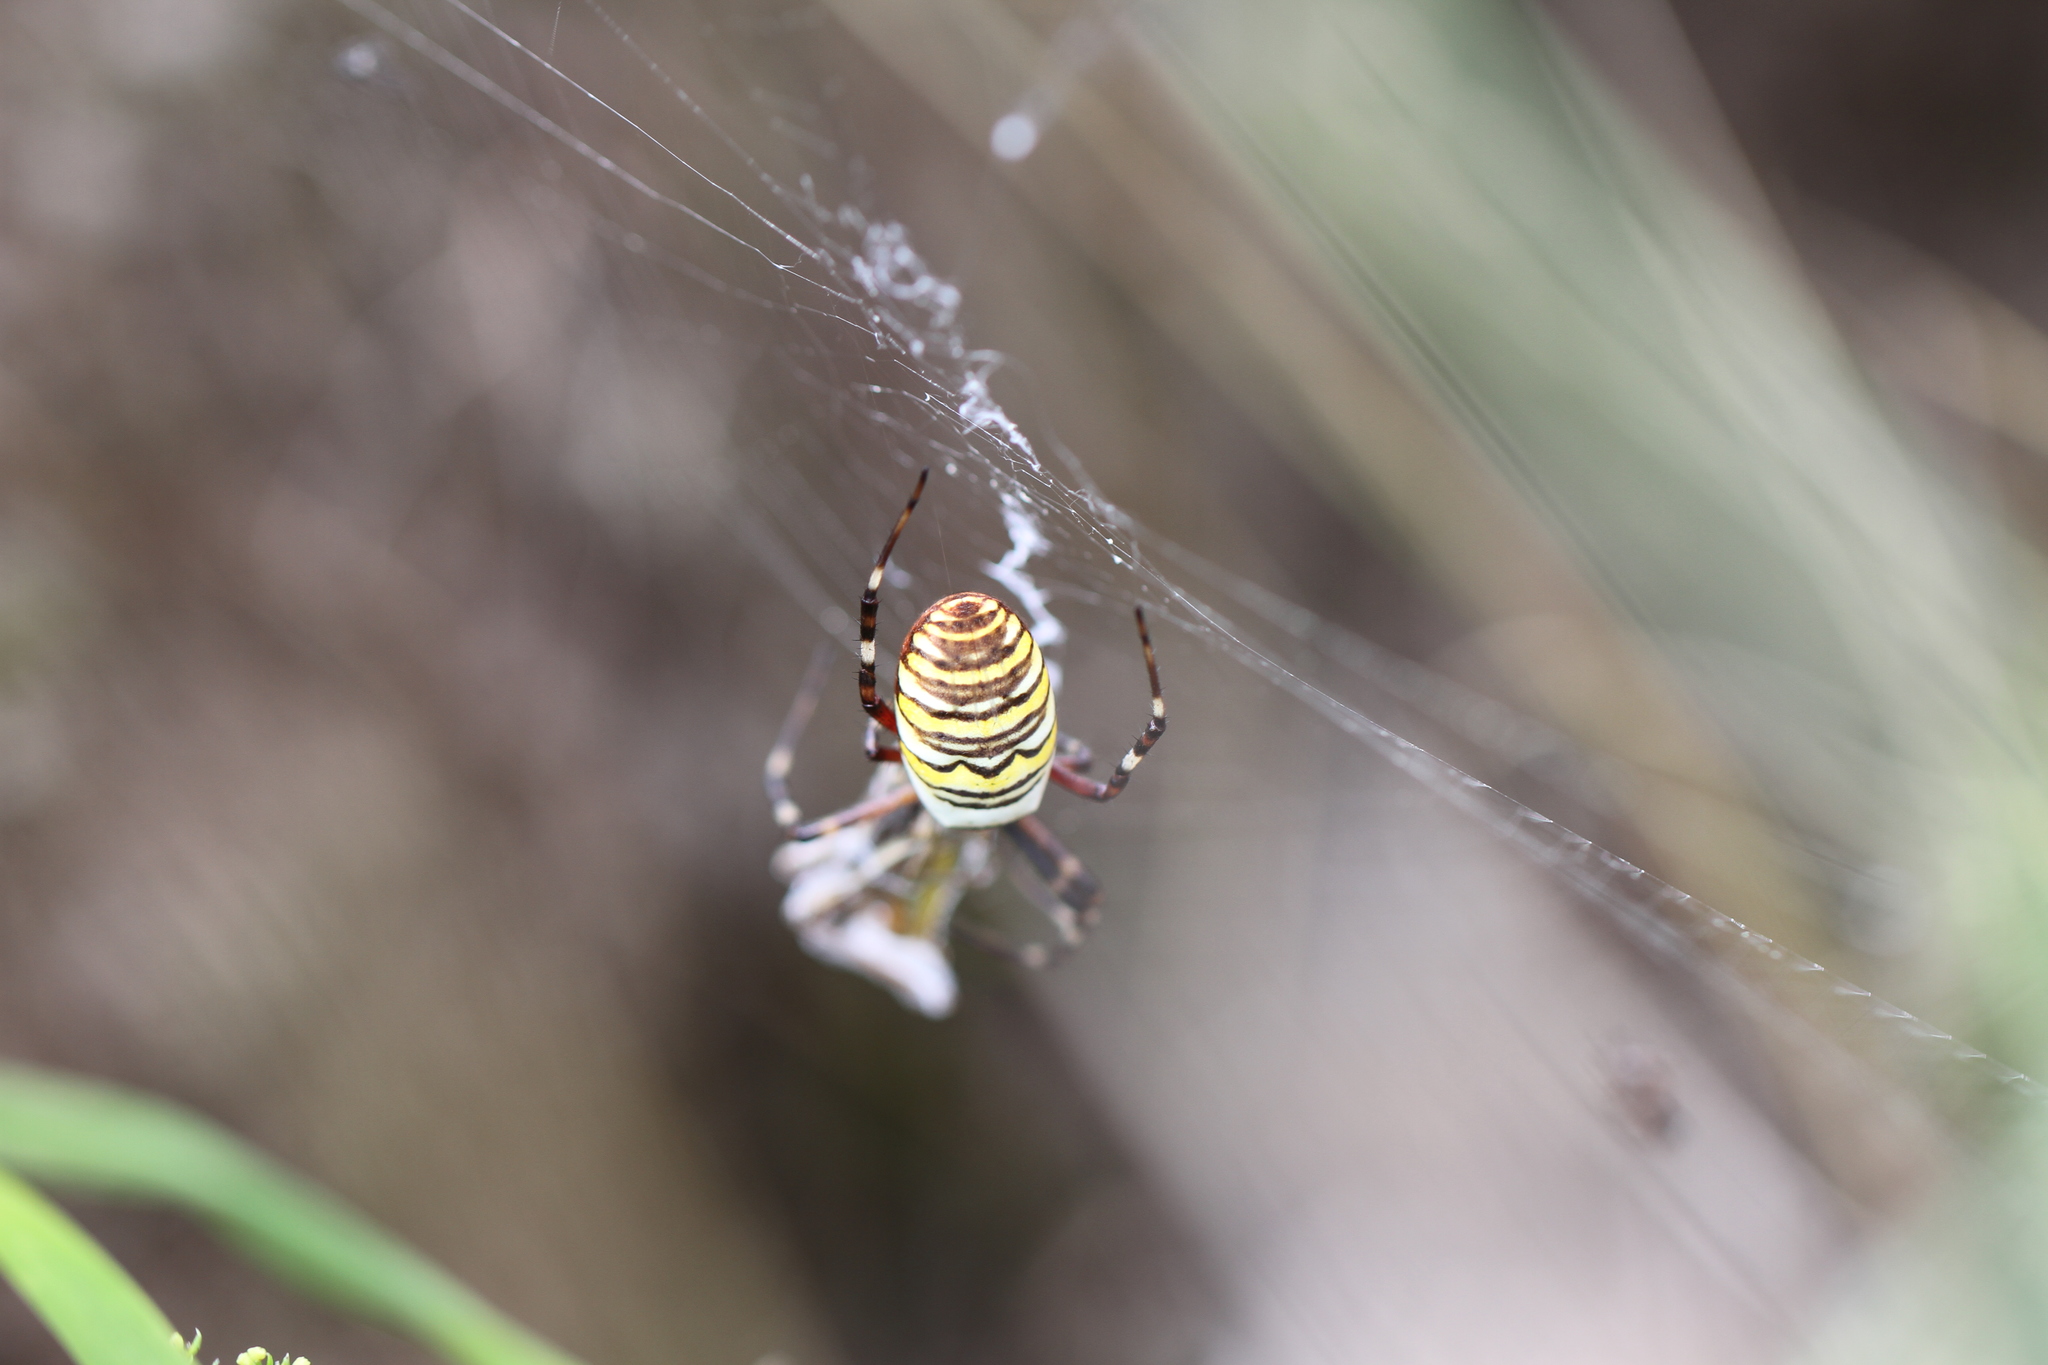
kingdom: Animalia
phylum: Arthropoda
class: Arachnida
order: Araneae
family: Araneidae
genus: Argiope
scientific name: Argiope bruennichi
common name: Wasp spider
